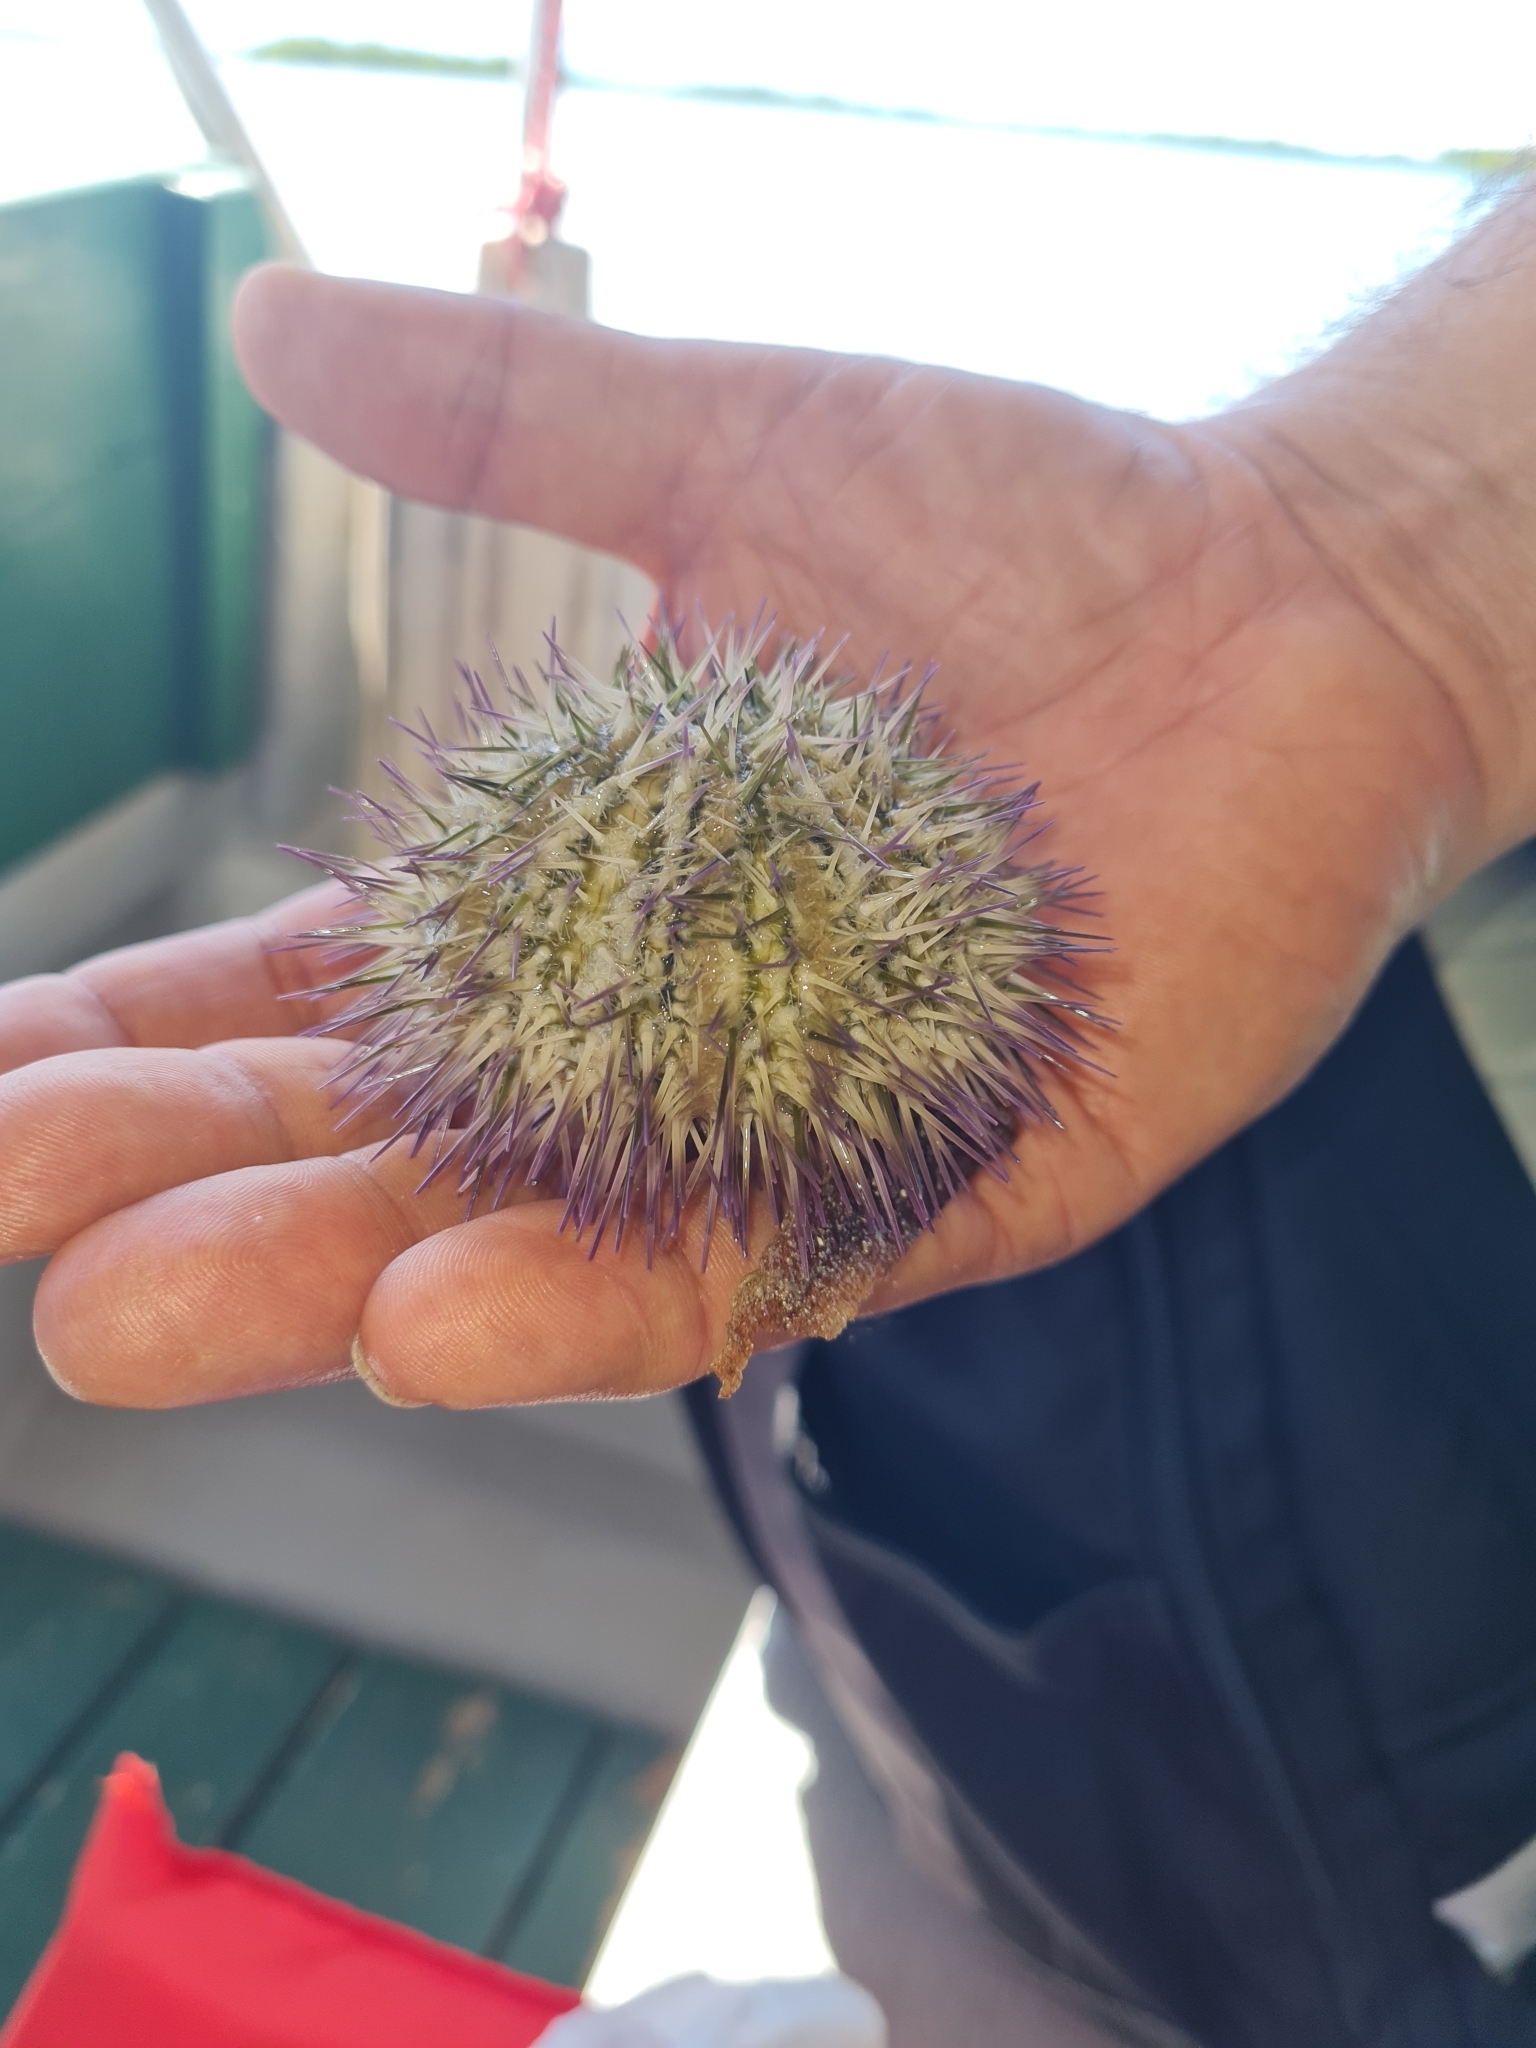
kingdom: Animalia
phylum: Echinodermata
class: Echinoidea
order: Camarodonta
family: Toxopneustidae
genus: Lytechinus
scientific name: Lytechinus variegatus
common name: Variegated urchin
